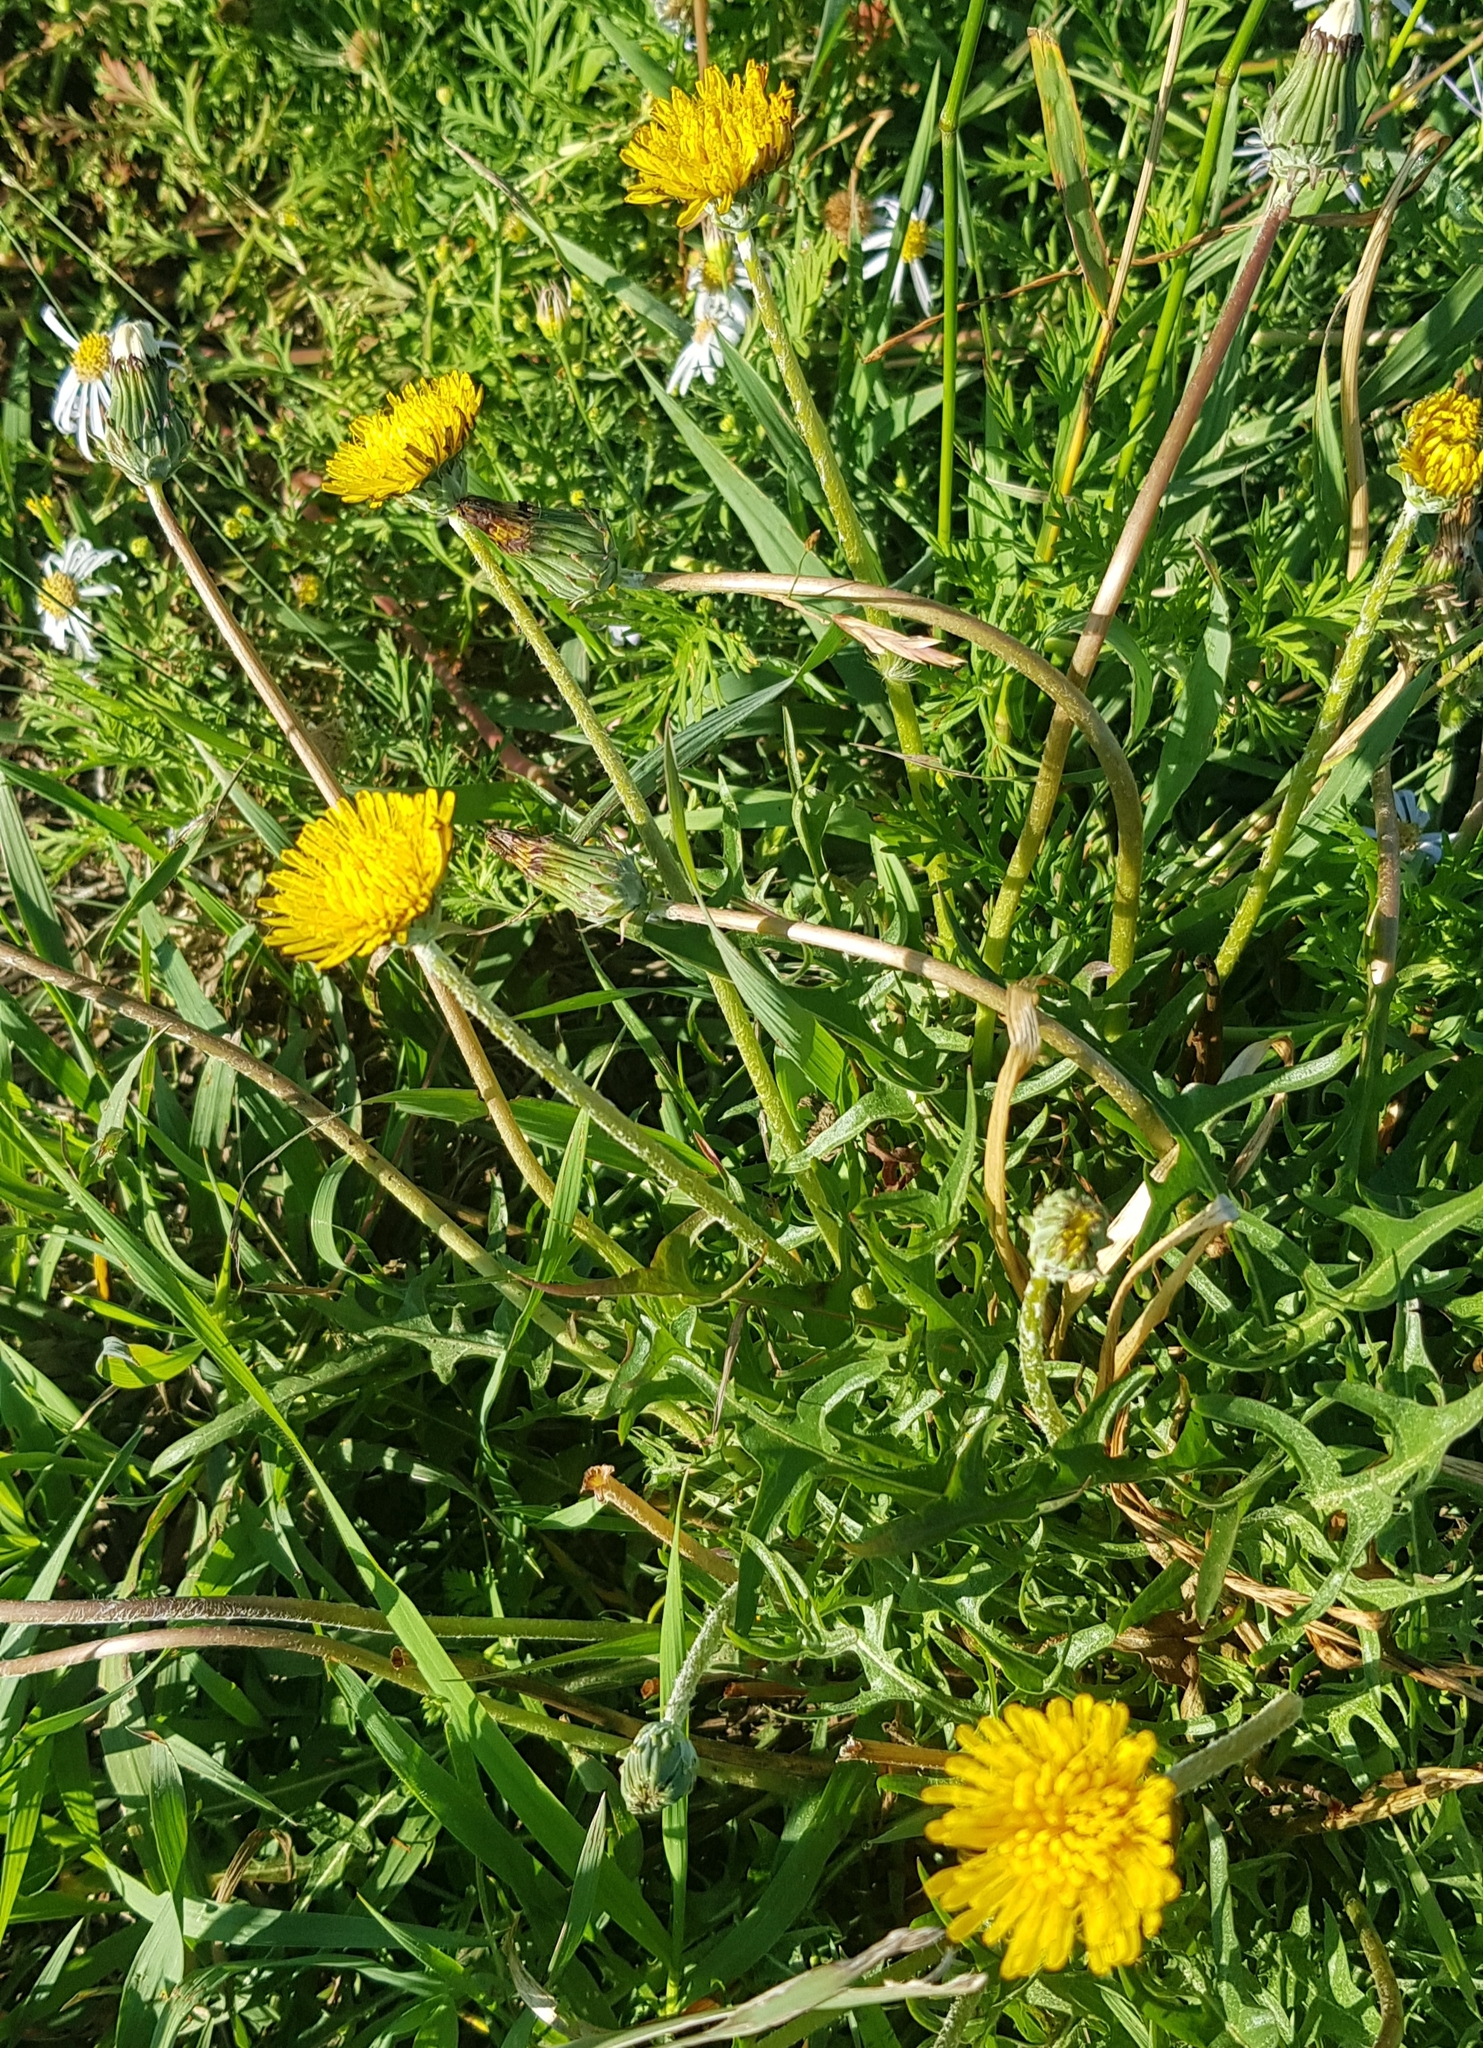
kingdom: Plantae
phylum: Tracheophyta
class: Magnoliopsida
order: Asterales
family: Asteraceae
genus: Taraxacum
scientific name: Taraxacum officinale
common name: Common dandelion
